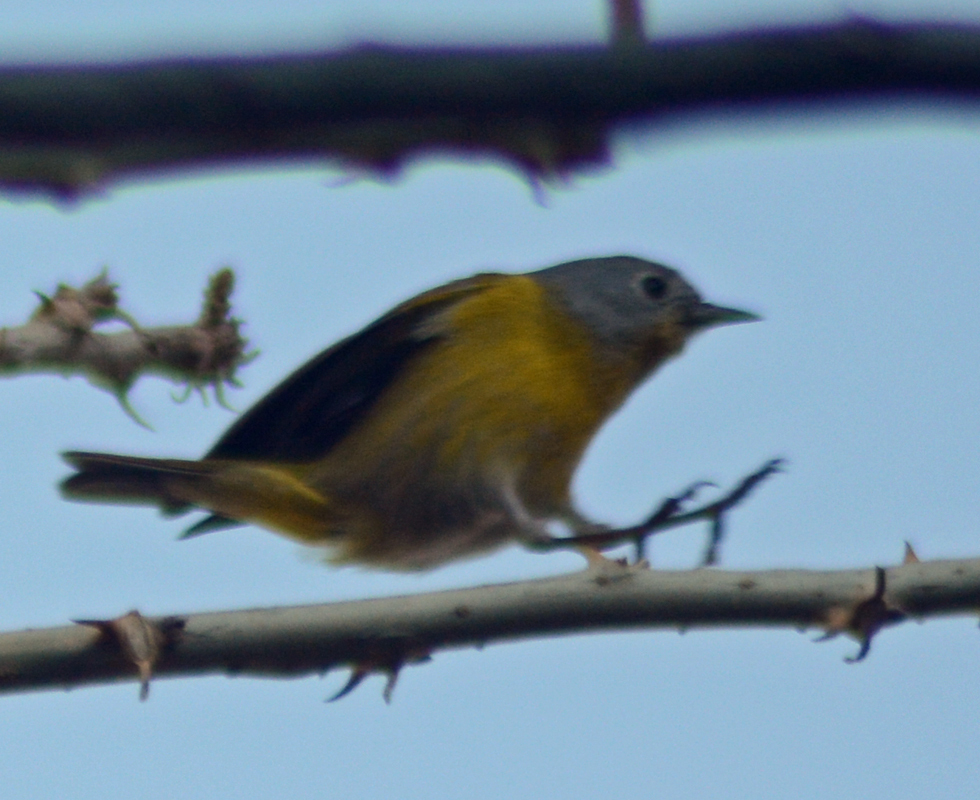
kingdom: Animalia
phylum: Chordata
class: Aves
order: Passeriformes
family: Parulidae
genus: Leiothlypis
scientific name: Leiothlypis ruficapilla
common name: Nashville warbler
